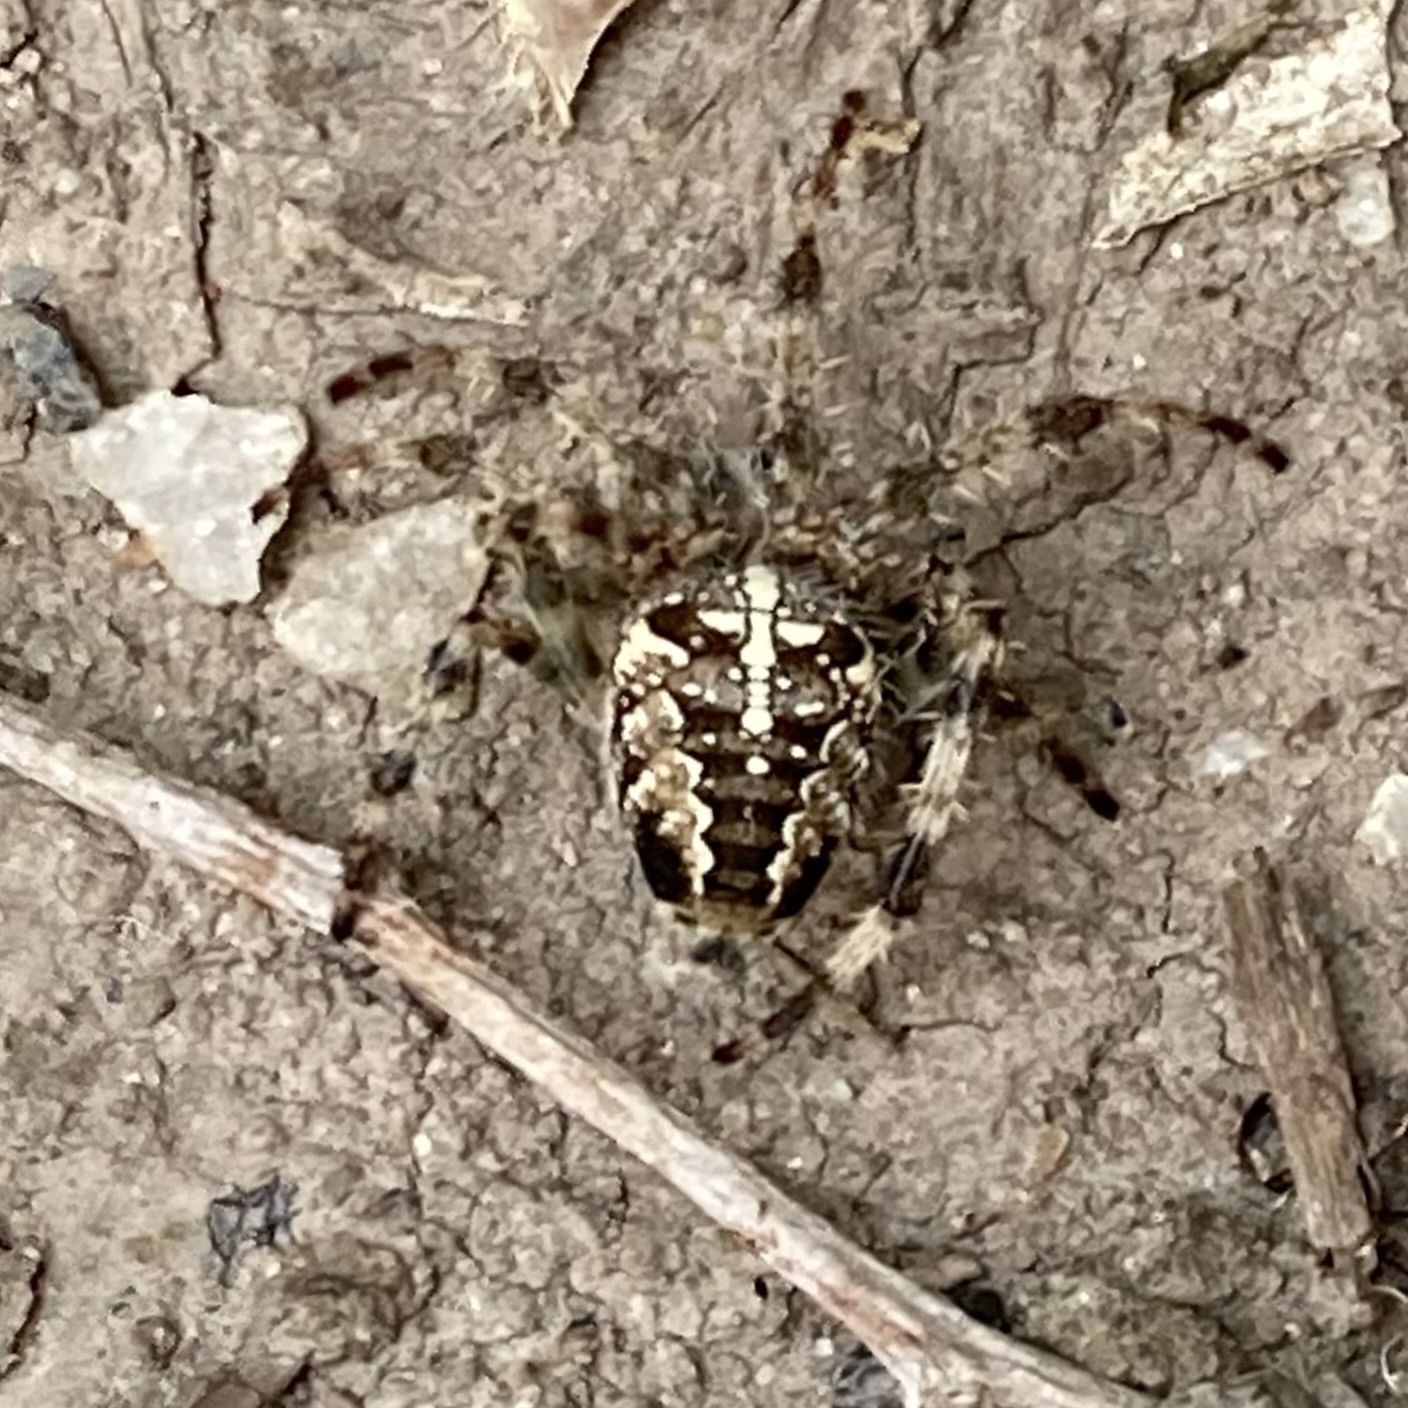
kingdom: Animalia
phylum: Arthropoda
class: Arachnida
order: Araneae
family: Araneidae
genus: Araneus
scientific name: Araneus diadematus
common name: Cross orbweaver
